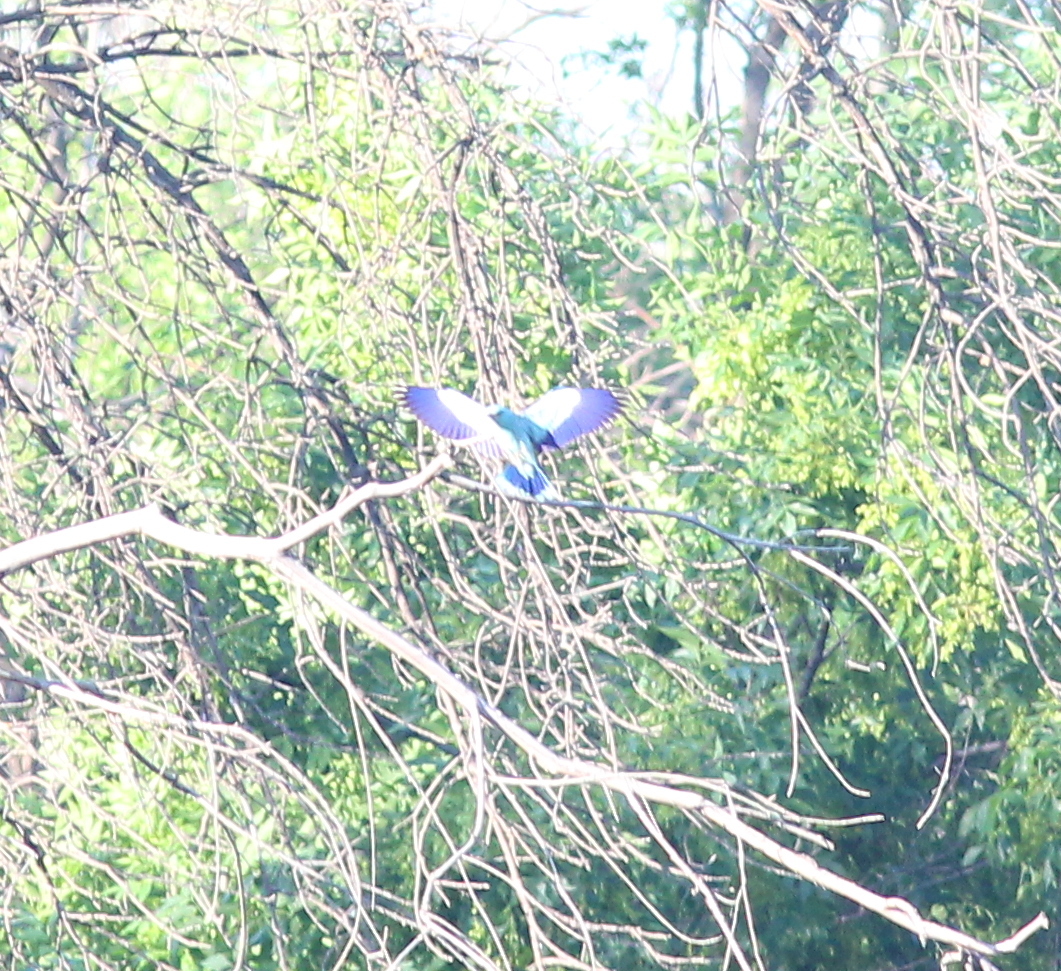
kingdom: Animalia
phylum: Chordata
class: Aves
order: Coraciiformes
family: Coraciidae
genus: Coracias
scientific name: Coracias garrulus
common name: European roller
